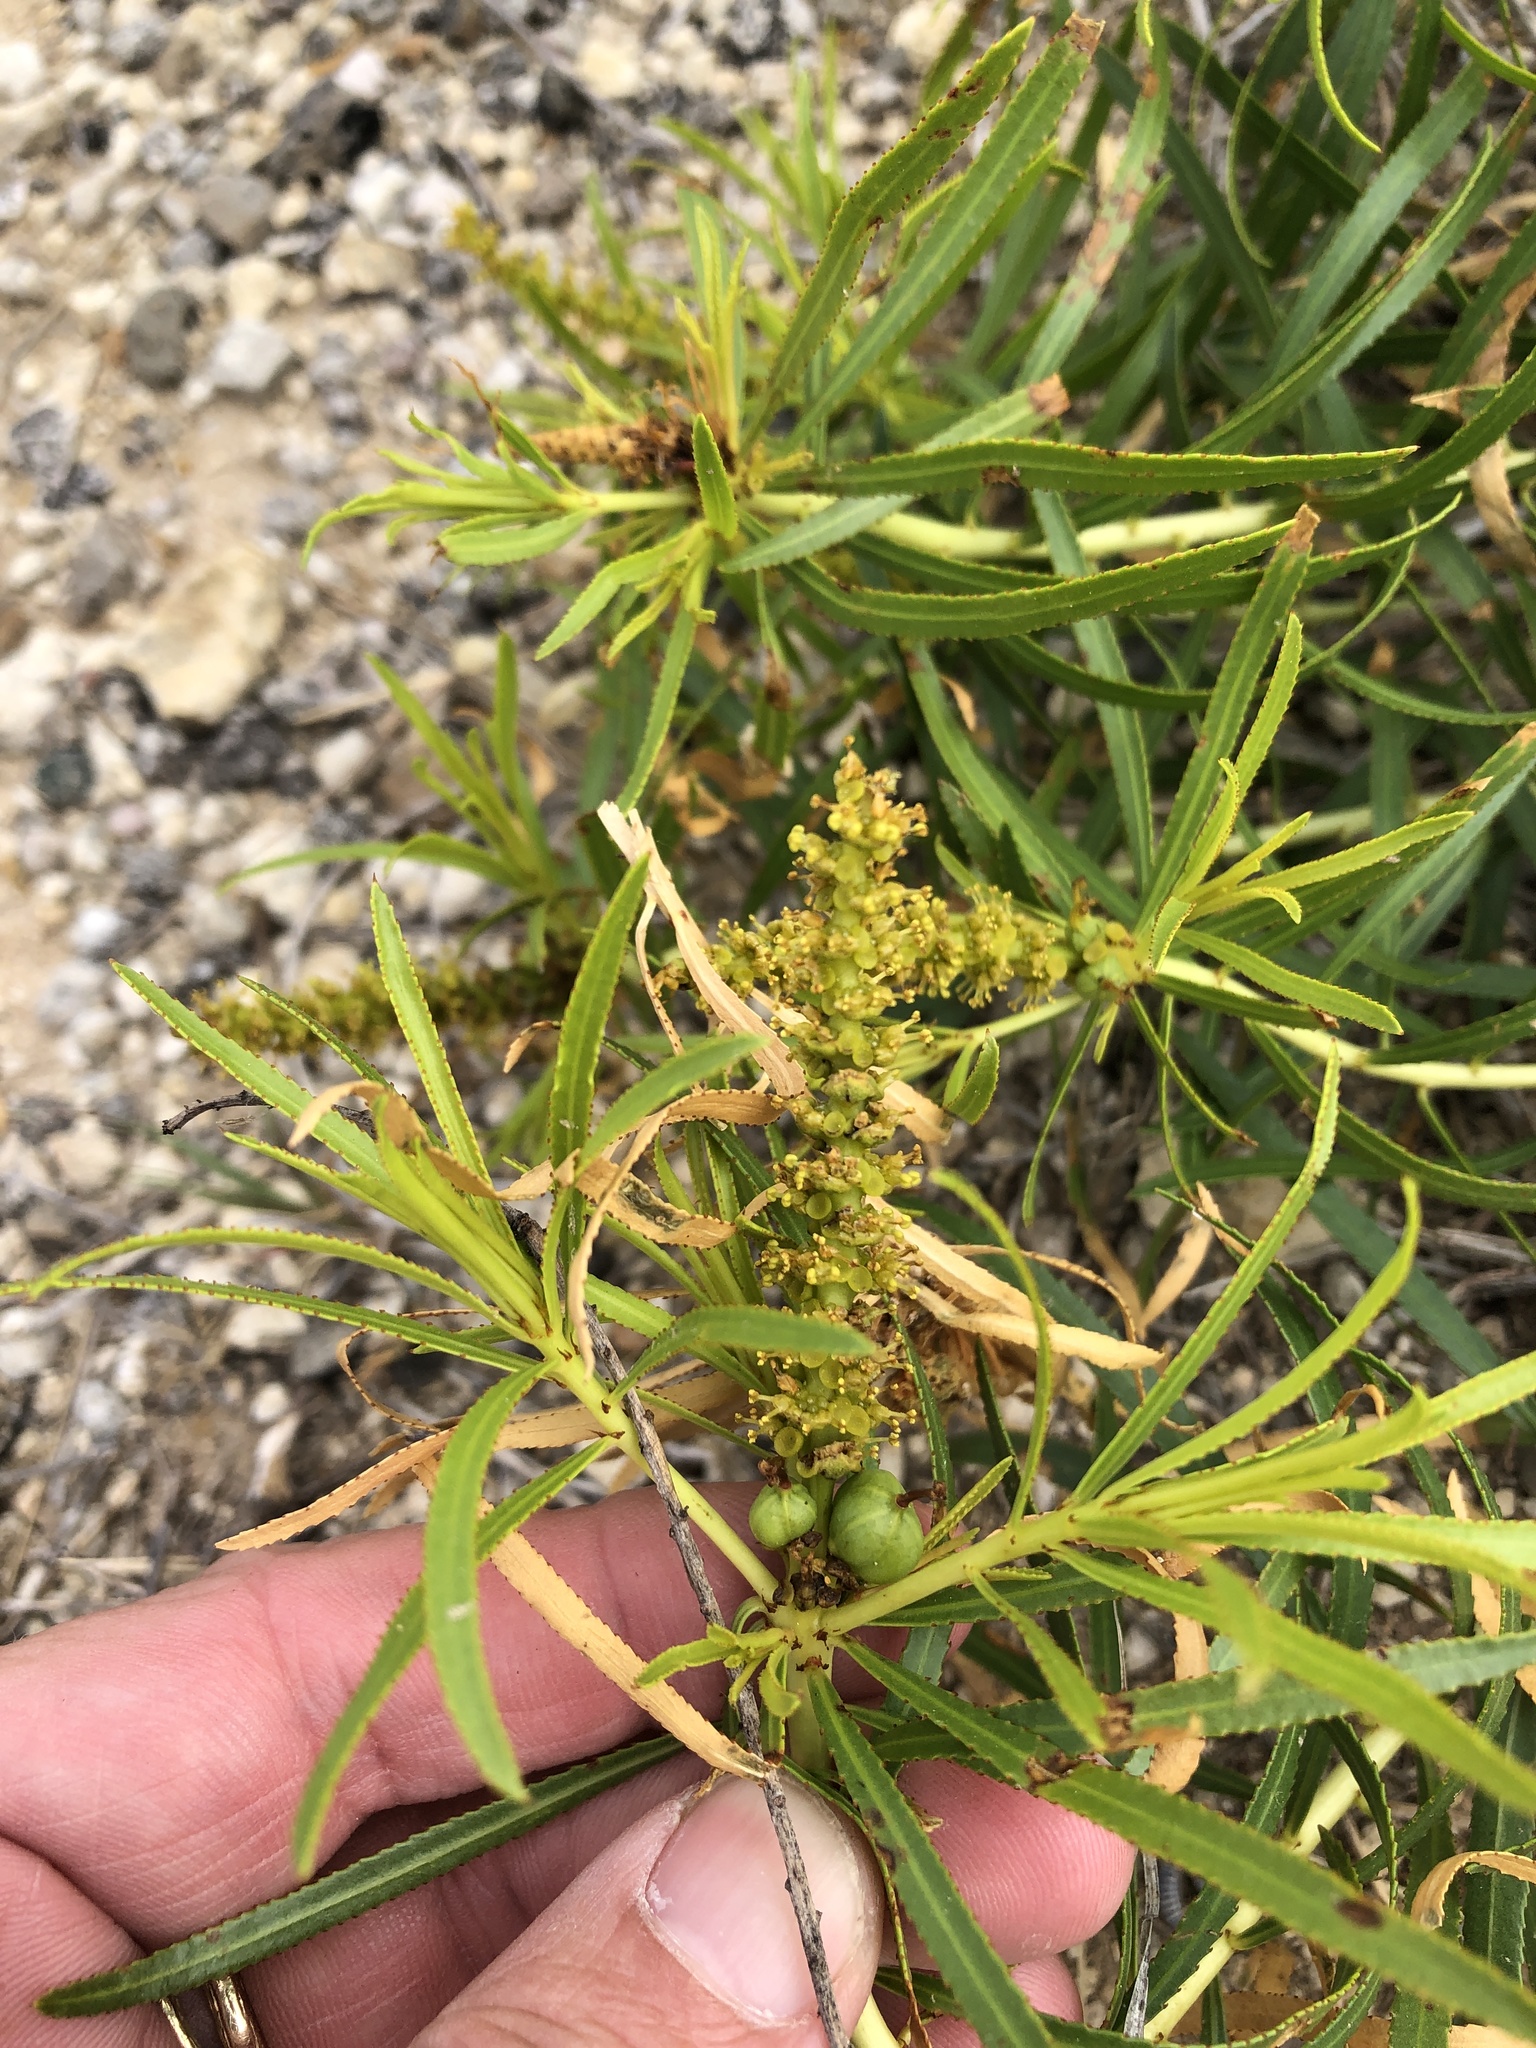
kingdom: Plantae
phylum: Tracheophyta
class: Magnoliopsida
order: Malpighiales
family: Euphorbiaceae
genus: Stillingia
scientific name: Stillingia texana
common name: Texas stillingia
